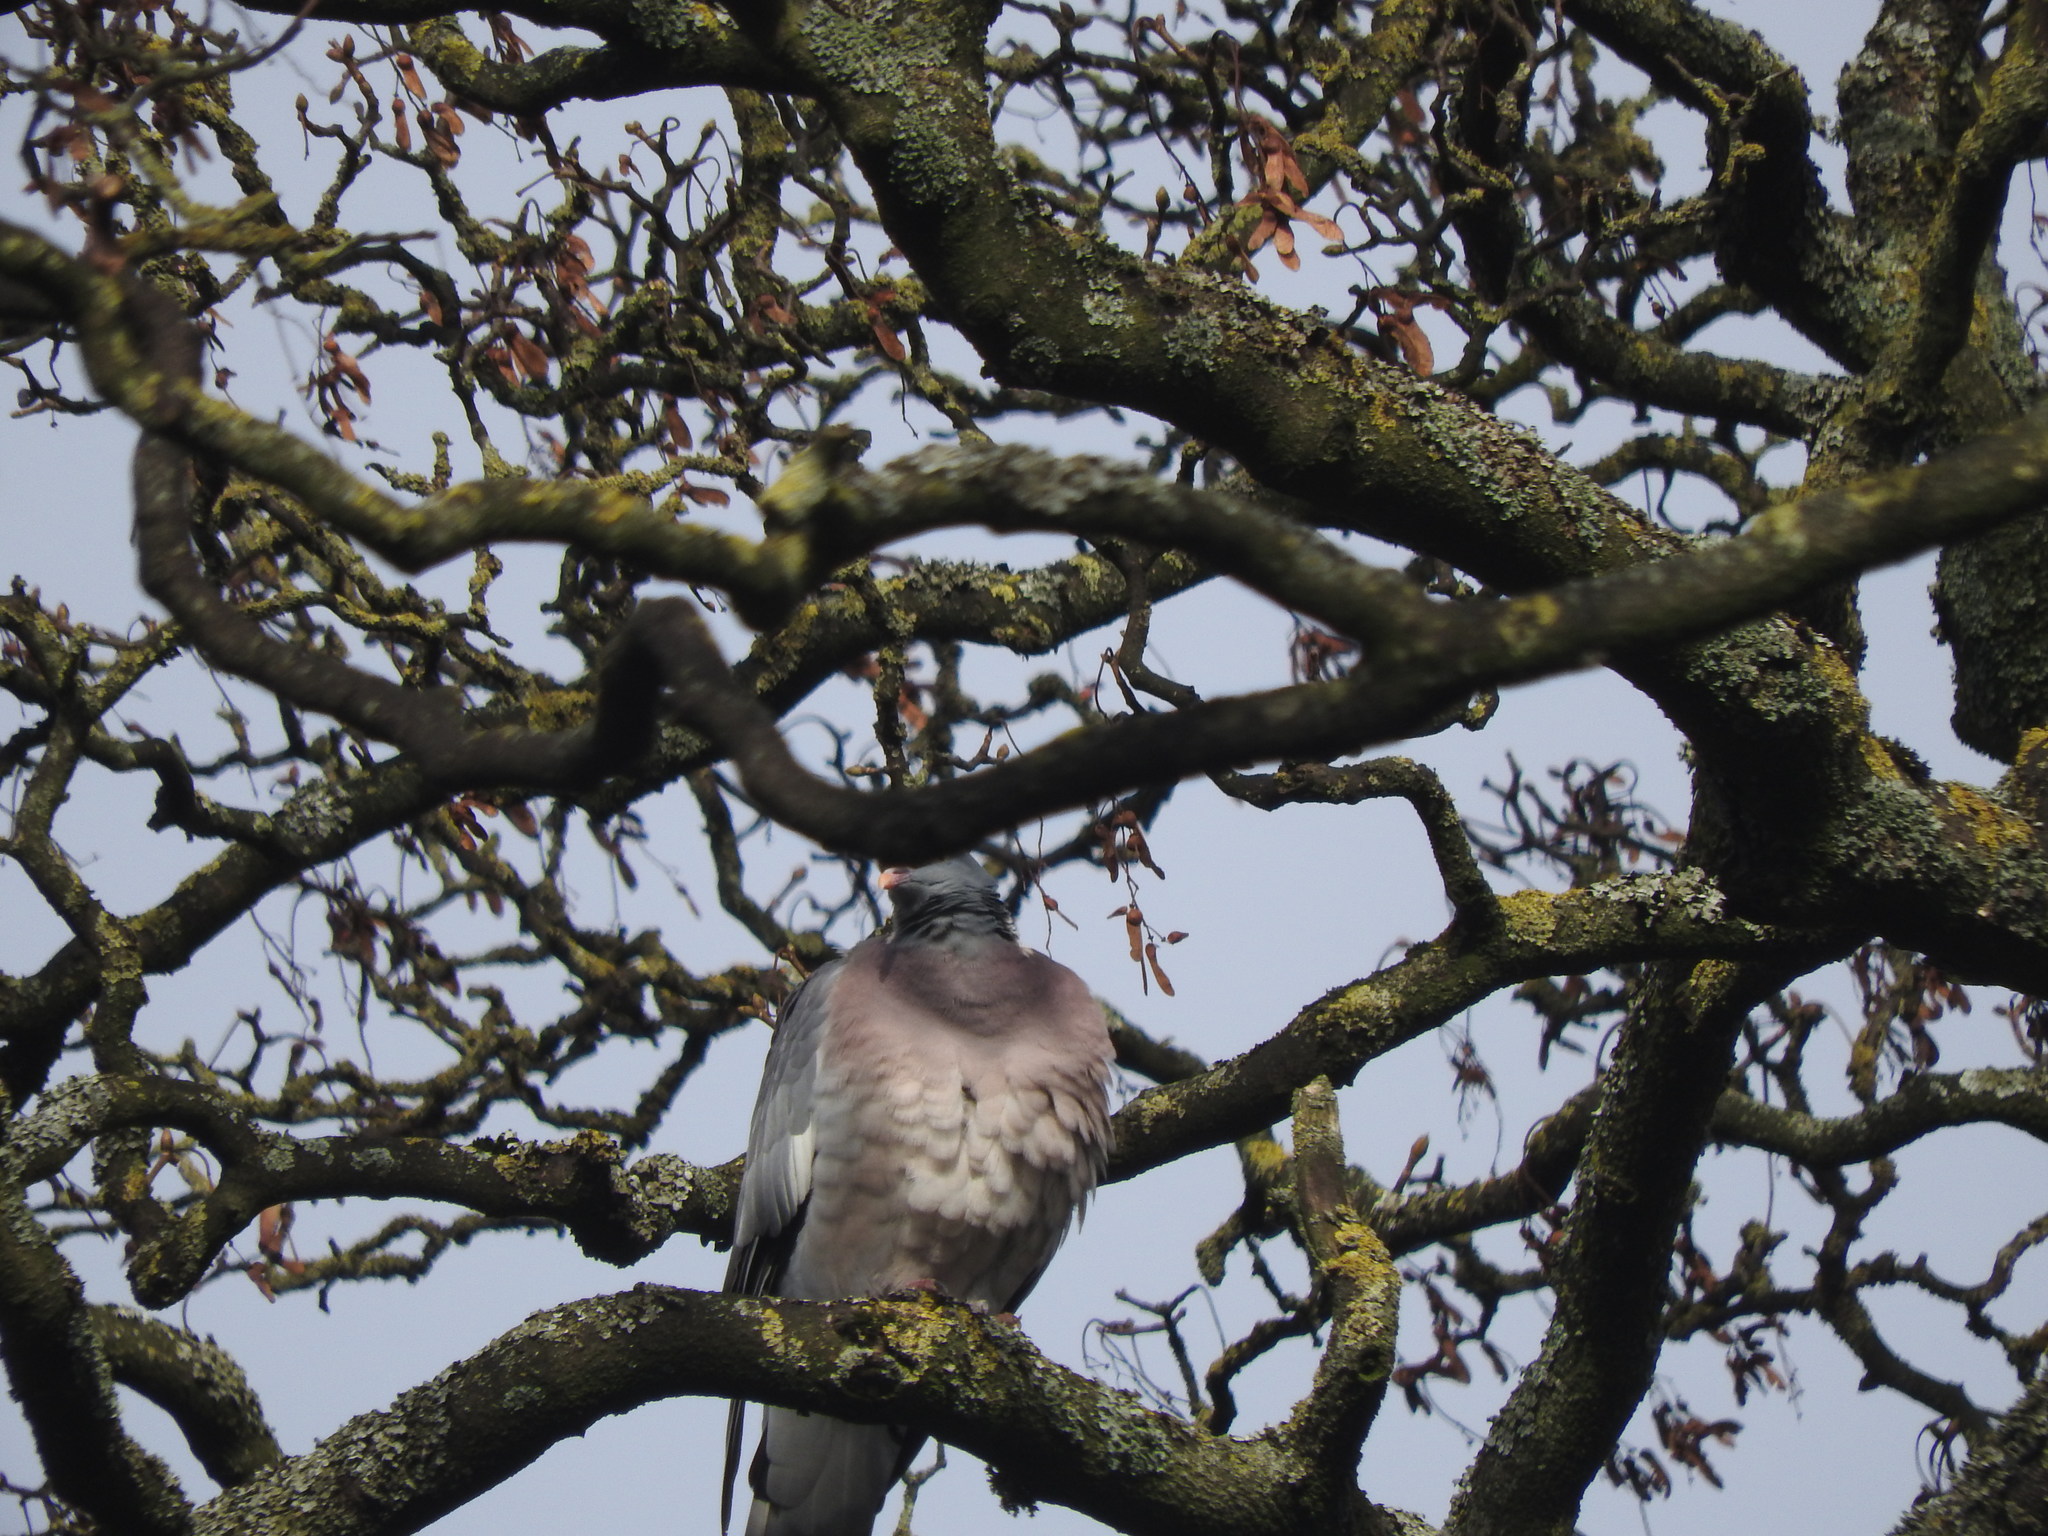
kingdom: Animalia
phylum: Chordata
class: Aves
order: Columbiformes
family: Columbidae
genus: Columba
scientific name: Columba palumbus
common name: Common wood pigeon
